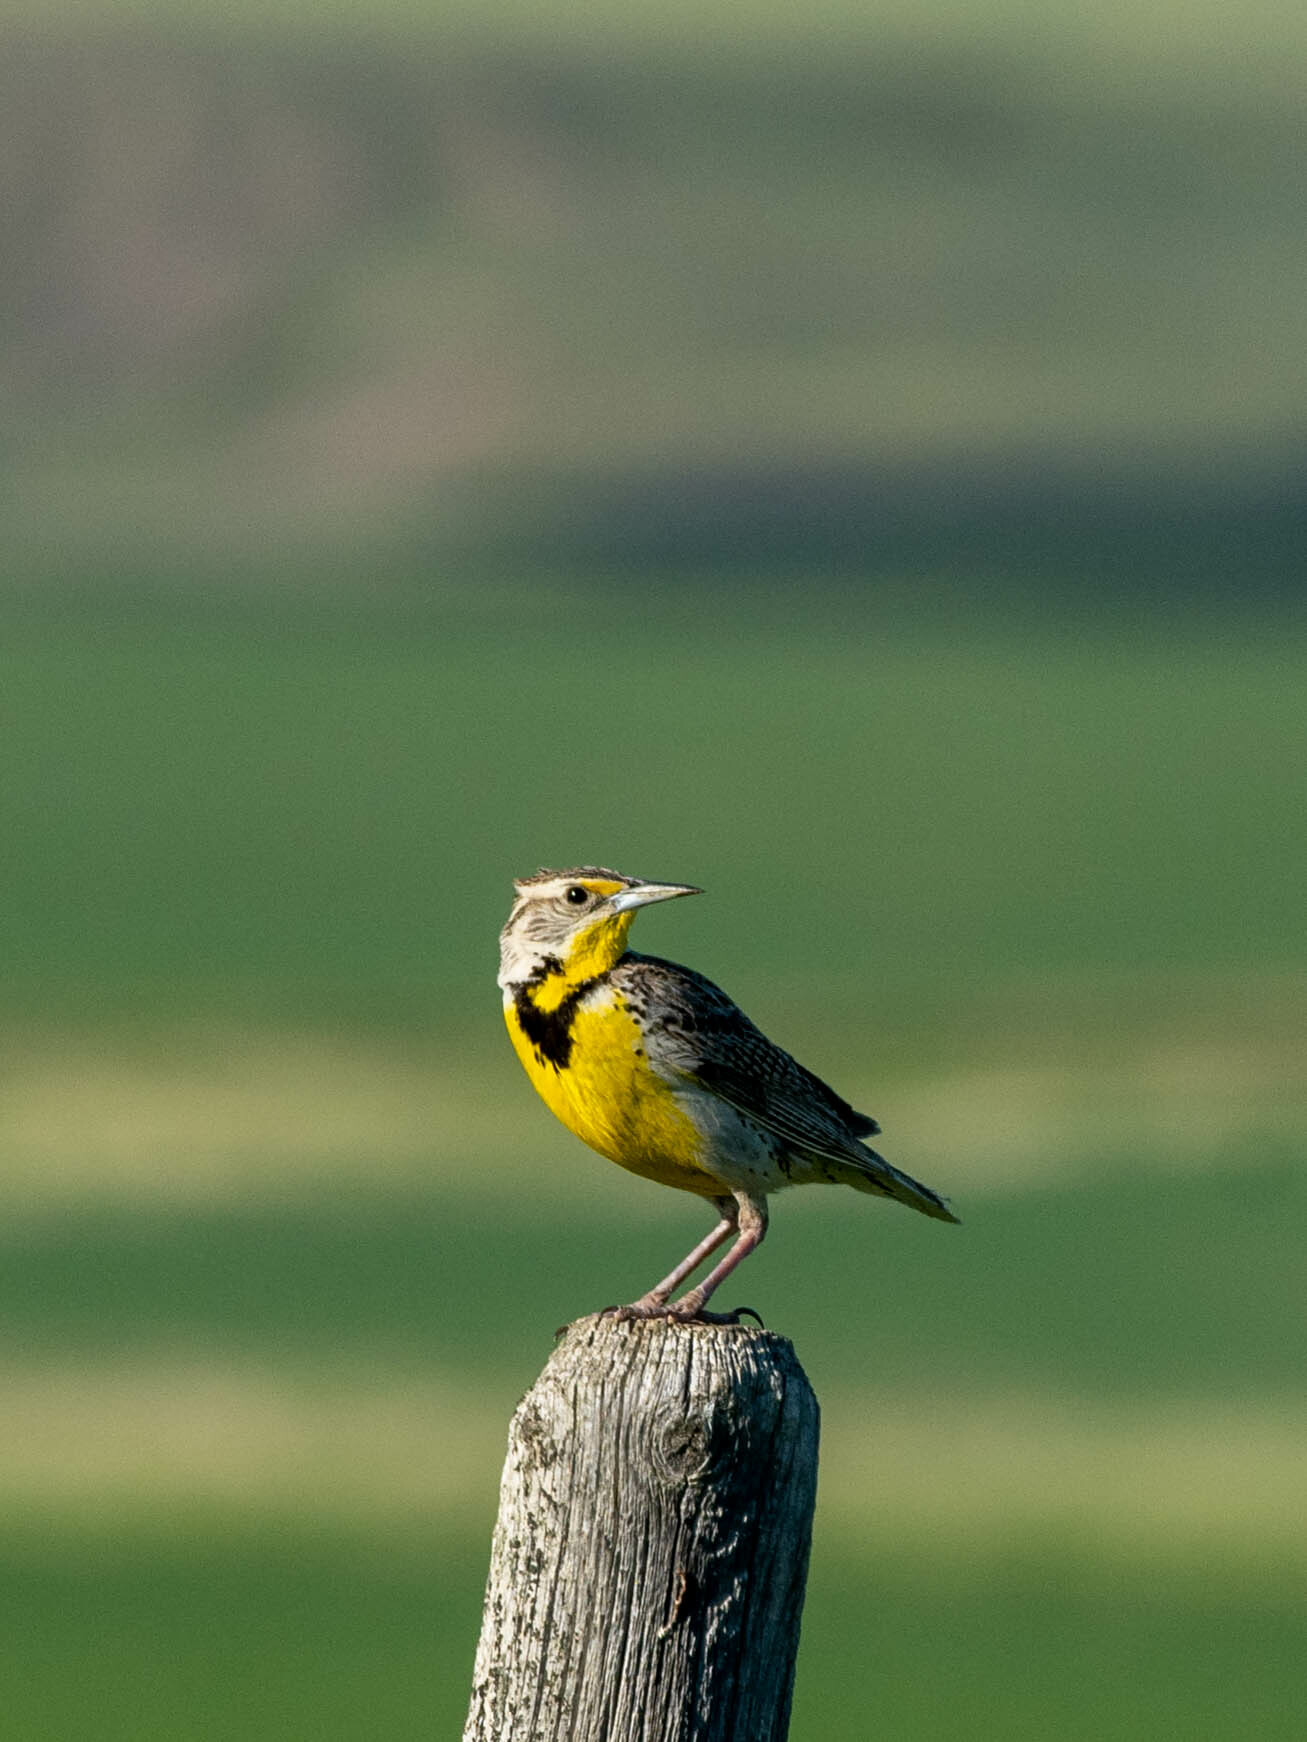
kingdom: Animalia
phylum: Chordata
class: Aves
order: Passeriformes
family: Icteridae
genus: Sturnella
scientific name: Sturnella neglecta
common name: Western meadowlark
